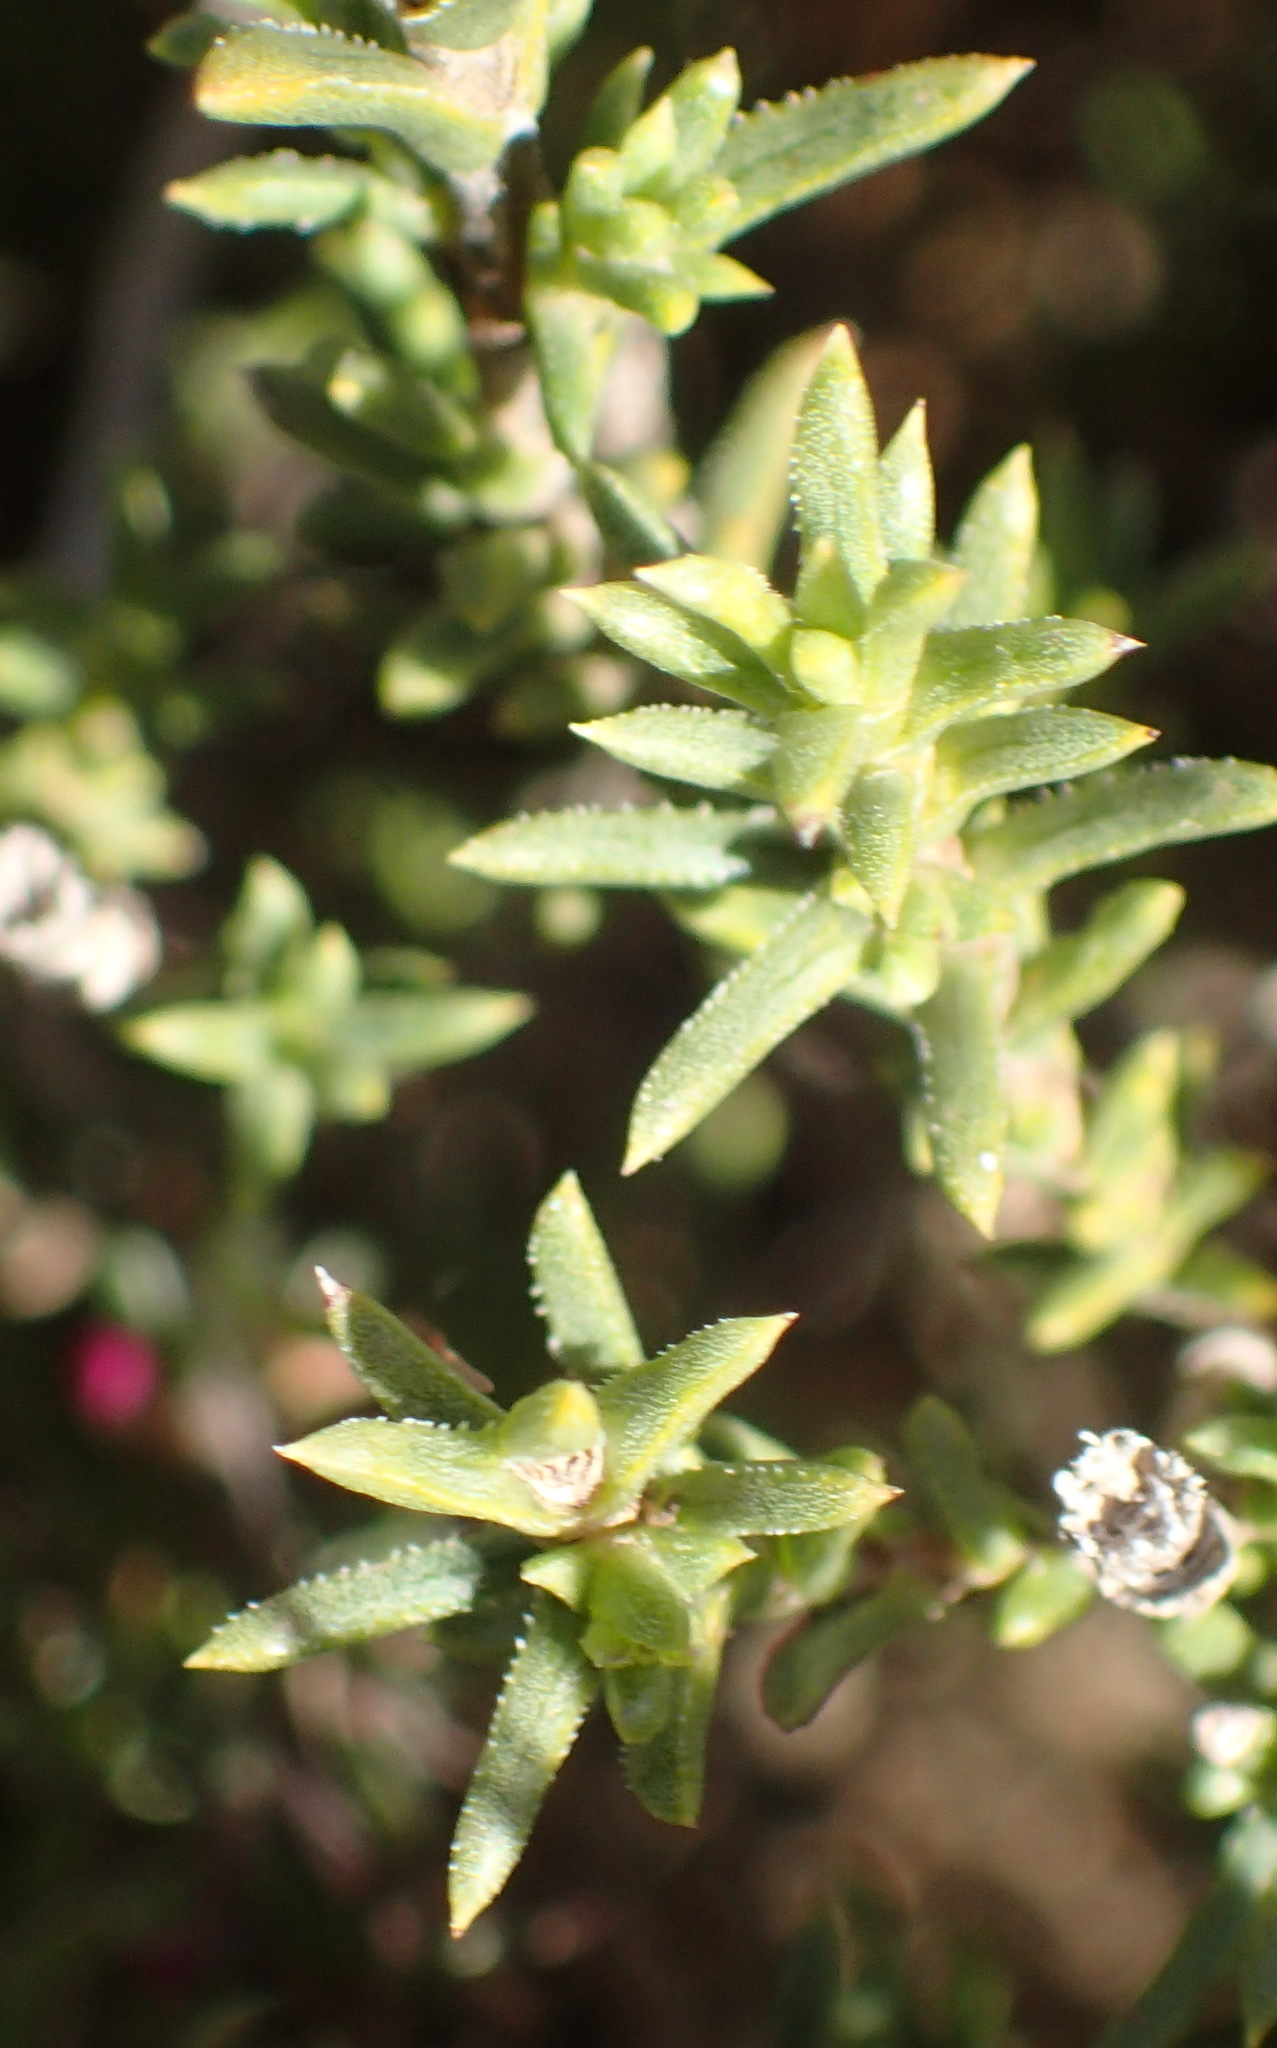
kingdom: Plantae
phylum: Tracheophyta
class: Magnoliopsida
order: Asterales
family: Asteraceae
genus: Pteronia
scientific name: Pteronia elongata
